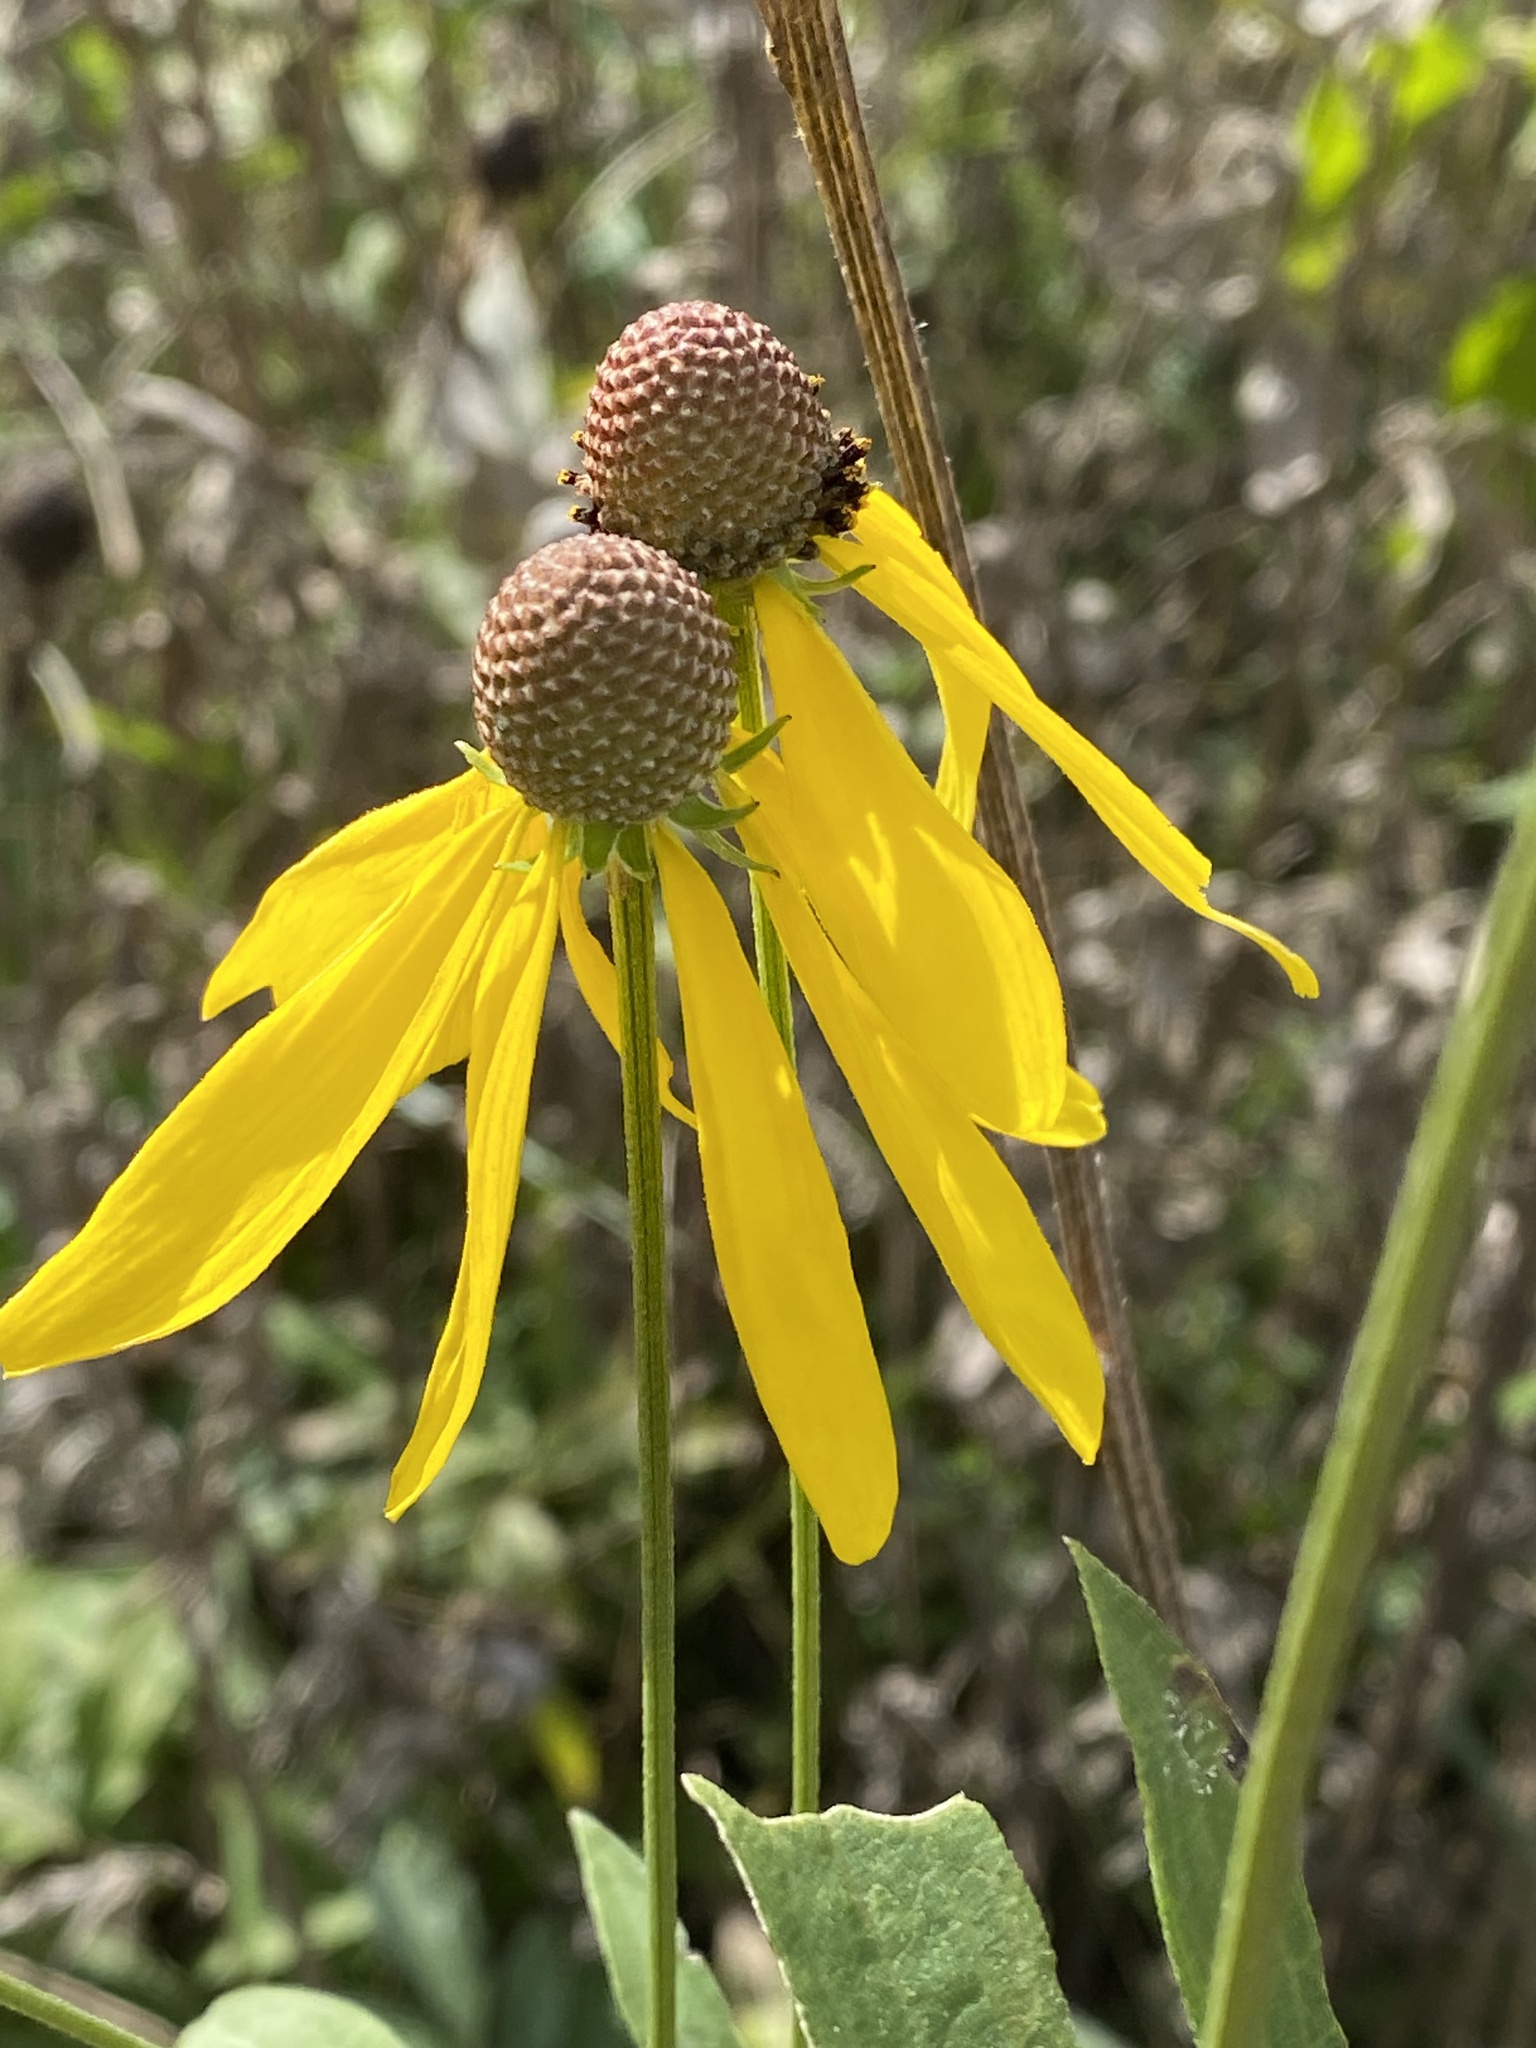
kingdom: Plantae
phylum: Tracheophyta
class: Magnoliopsida
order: Asterales
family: Asteraceae
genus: Ratibida
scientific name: Ratibida pinnata
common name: Drooping prairie-coneflower
